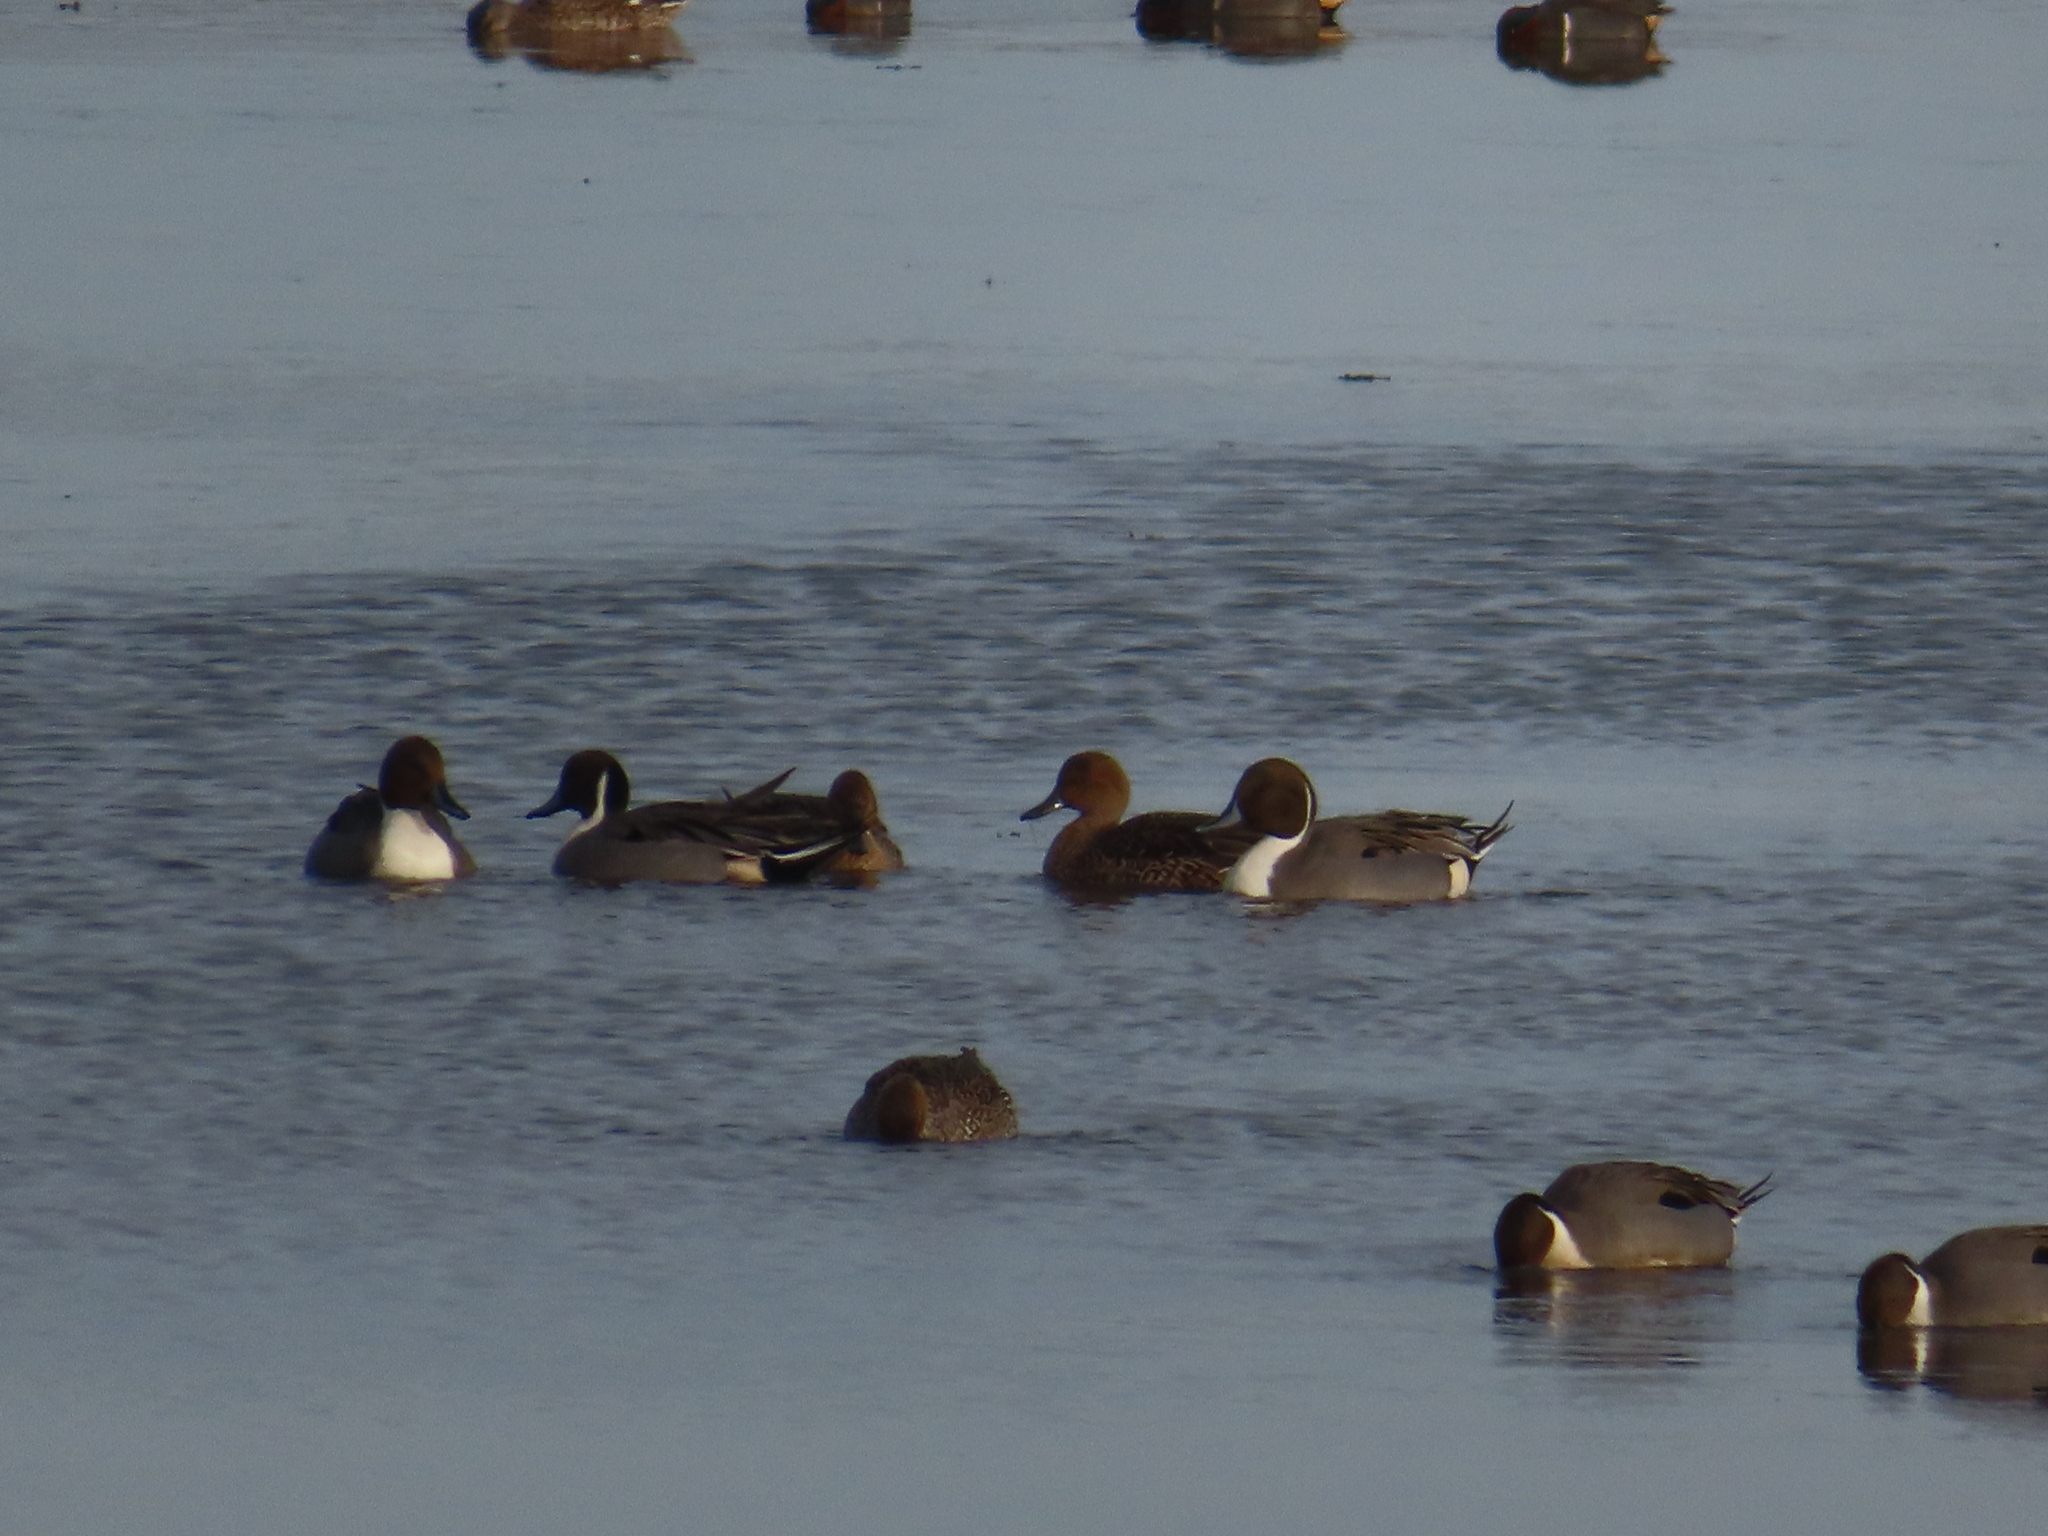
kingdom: Animalia
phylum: Chordata
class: Aves
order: Anseriformes
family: Anatidae
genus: Anas
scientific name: Anas acuta
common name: Northern pintail
